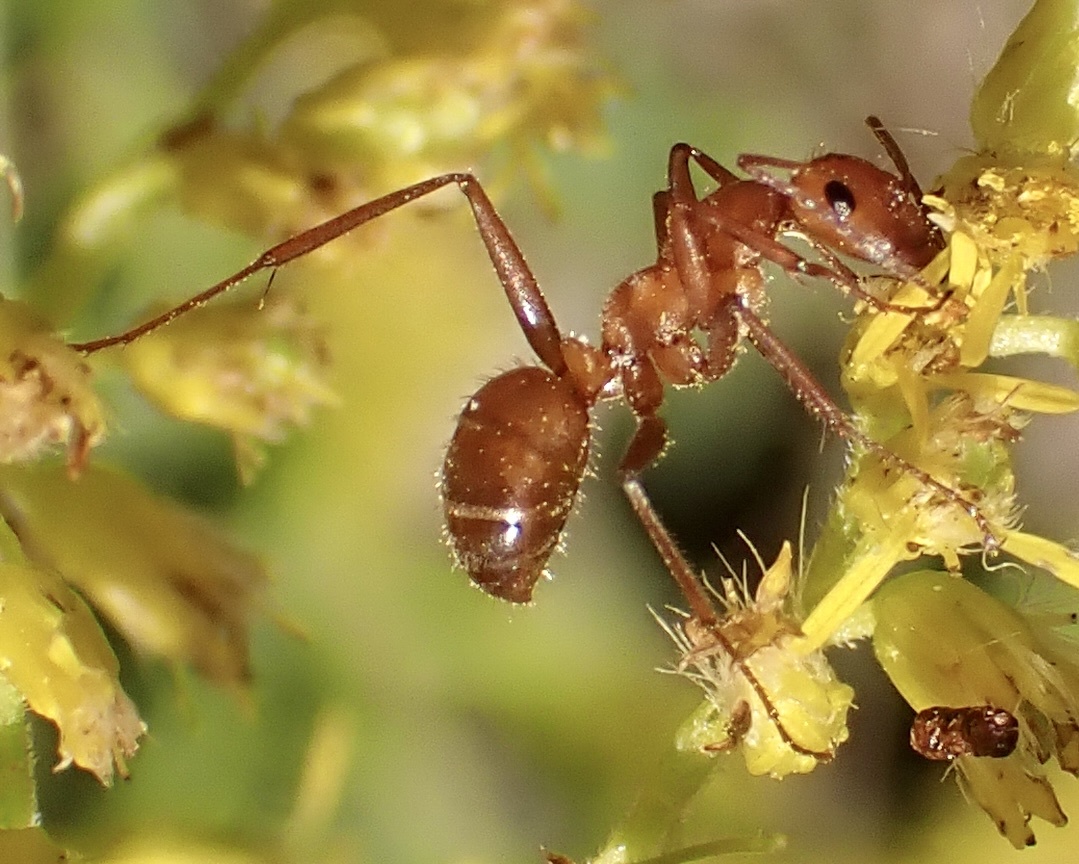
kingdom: Animalia
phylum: Arthropoda
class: Insecta
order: Hymenoptera
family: Formicidae
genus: Formica
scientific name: Formica biophilica
